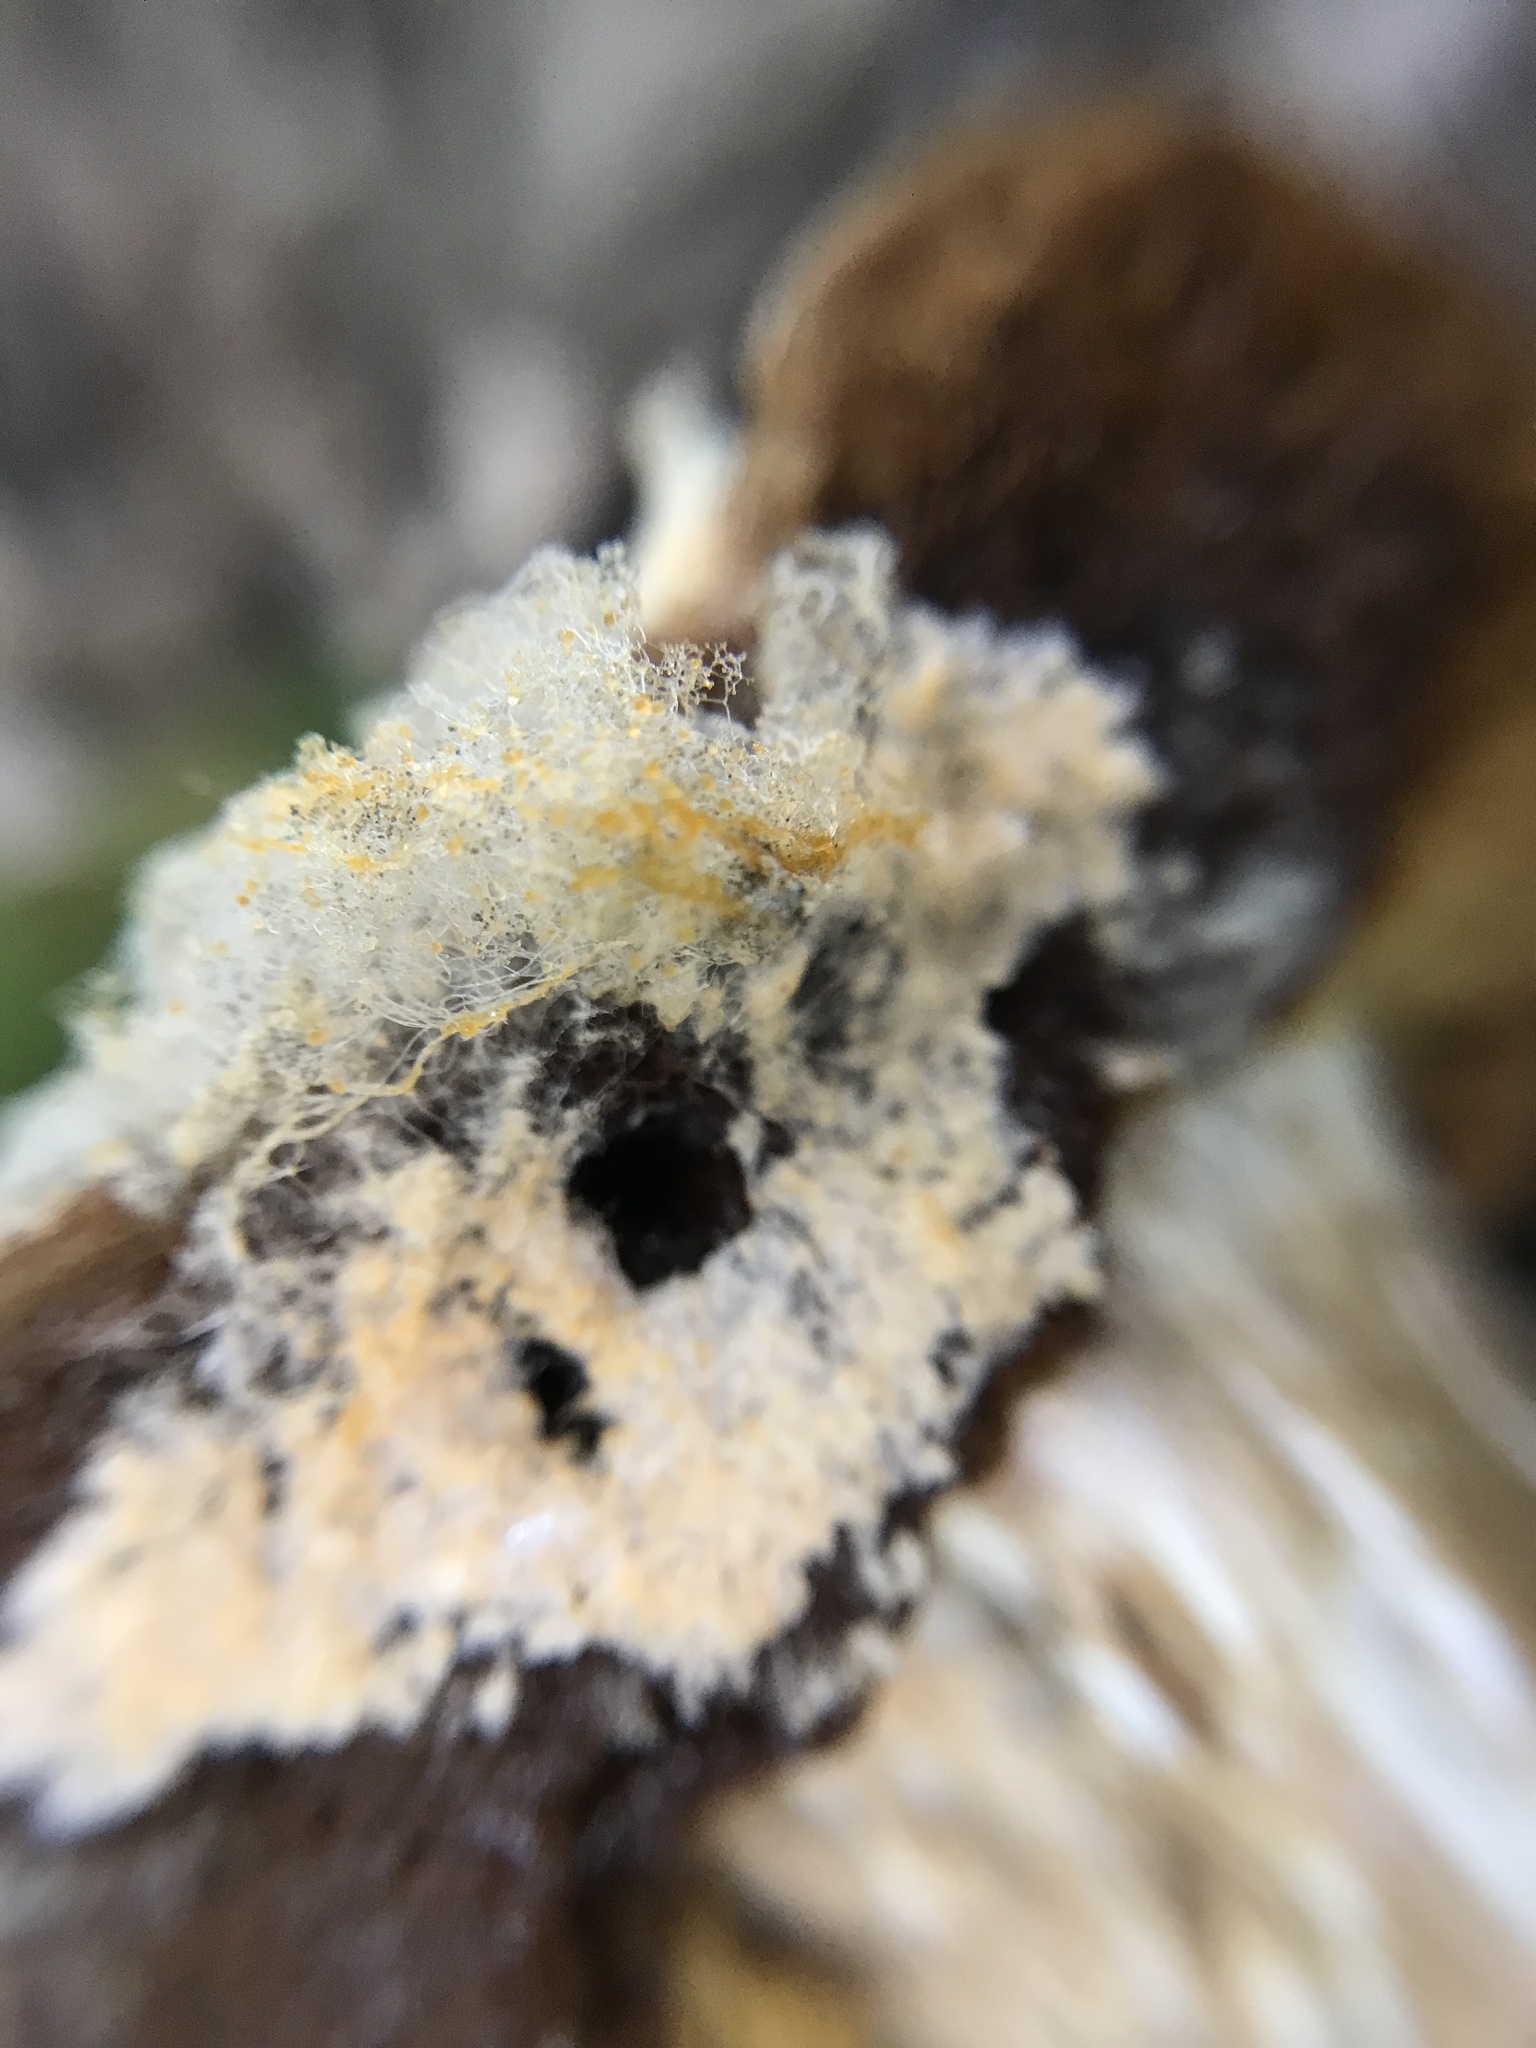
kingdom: Fungi
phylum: Mucoromycota
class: Mucoromycetes
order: Mucorales
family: Rhizopodaceae
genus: Syzygites
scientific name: Syzygites megalocarpus
